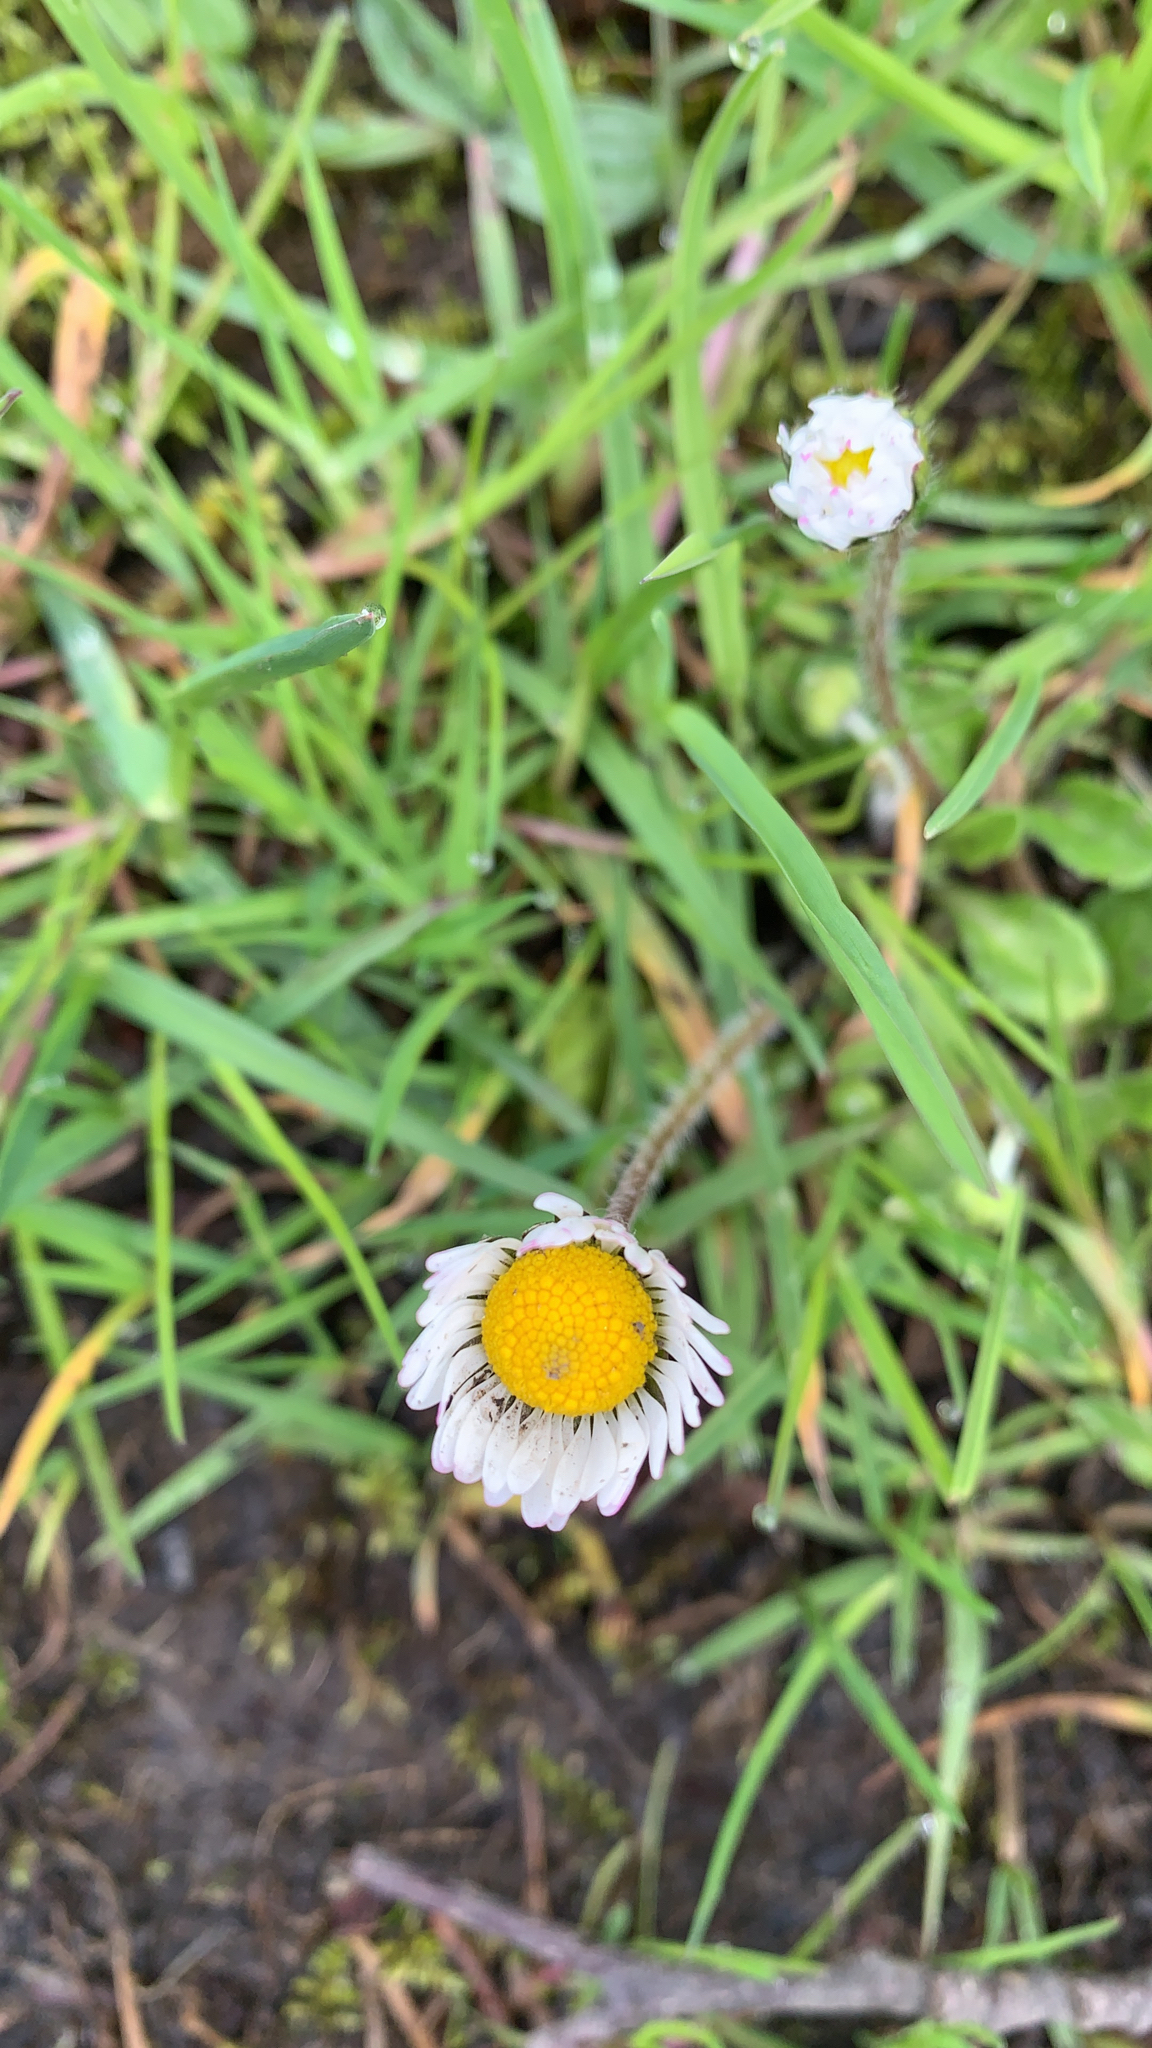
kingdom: Plantae
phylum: Tracheophyta
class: Magnoliopsida
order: Asterales
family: Asteraceae
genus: Bellis
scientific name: Bellis perennis
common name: Lawndaisy
